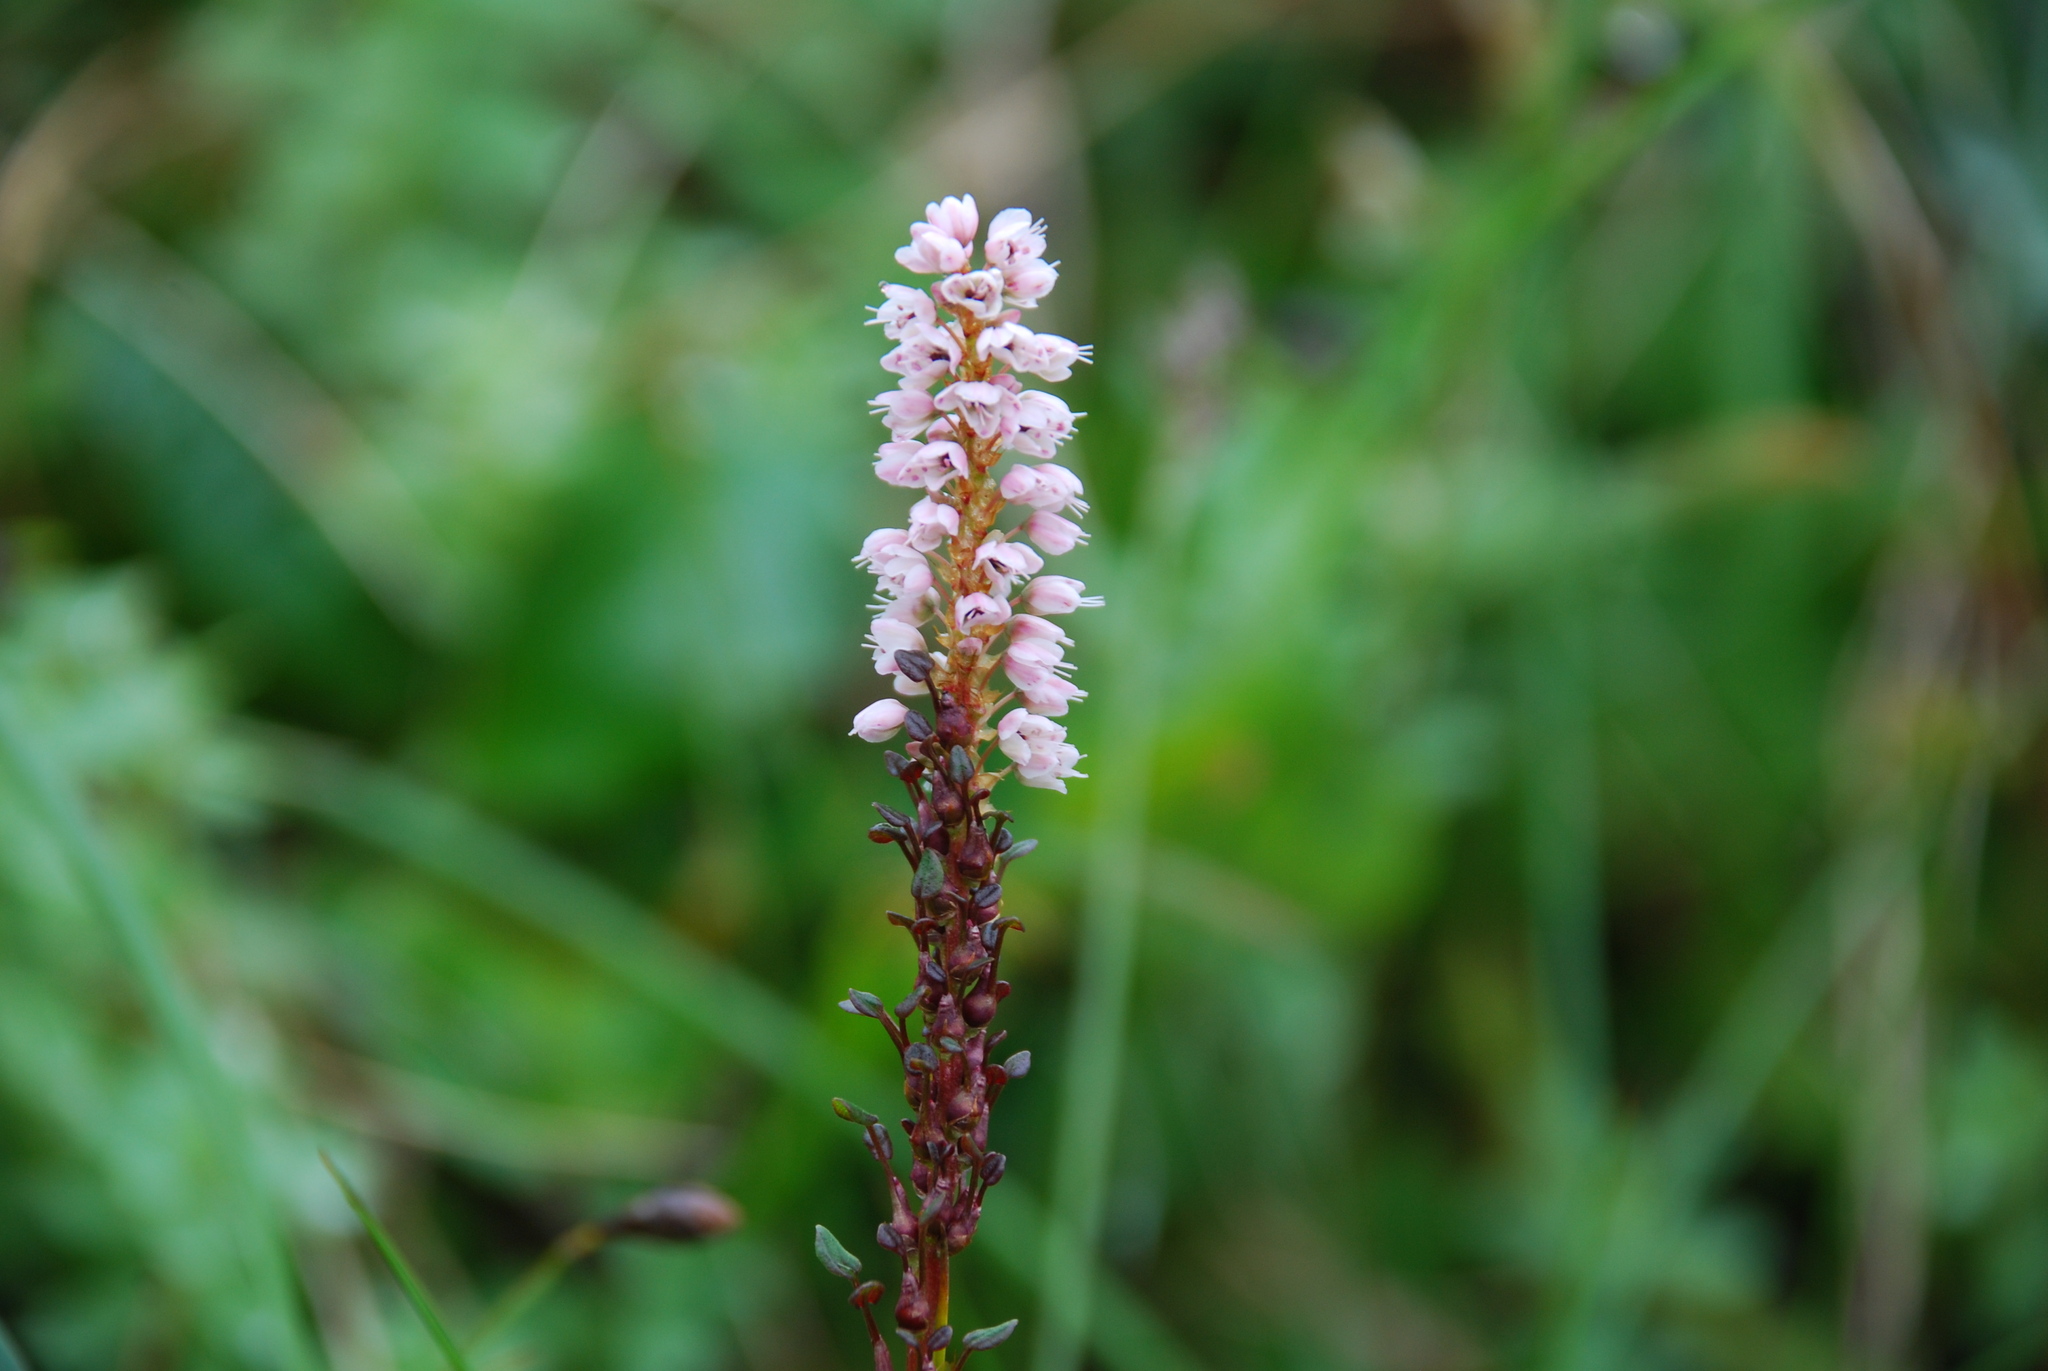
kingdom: Plantae
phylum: Tracheophyta
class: Magnoliopsida
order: Caryophyllales
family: Polygonaceae
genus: Bistorta
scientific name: Bistorta vivipara
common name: Alpine bistort
